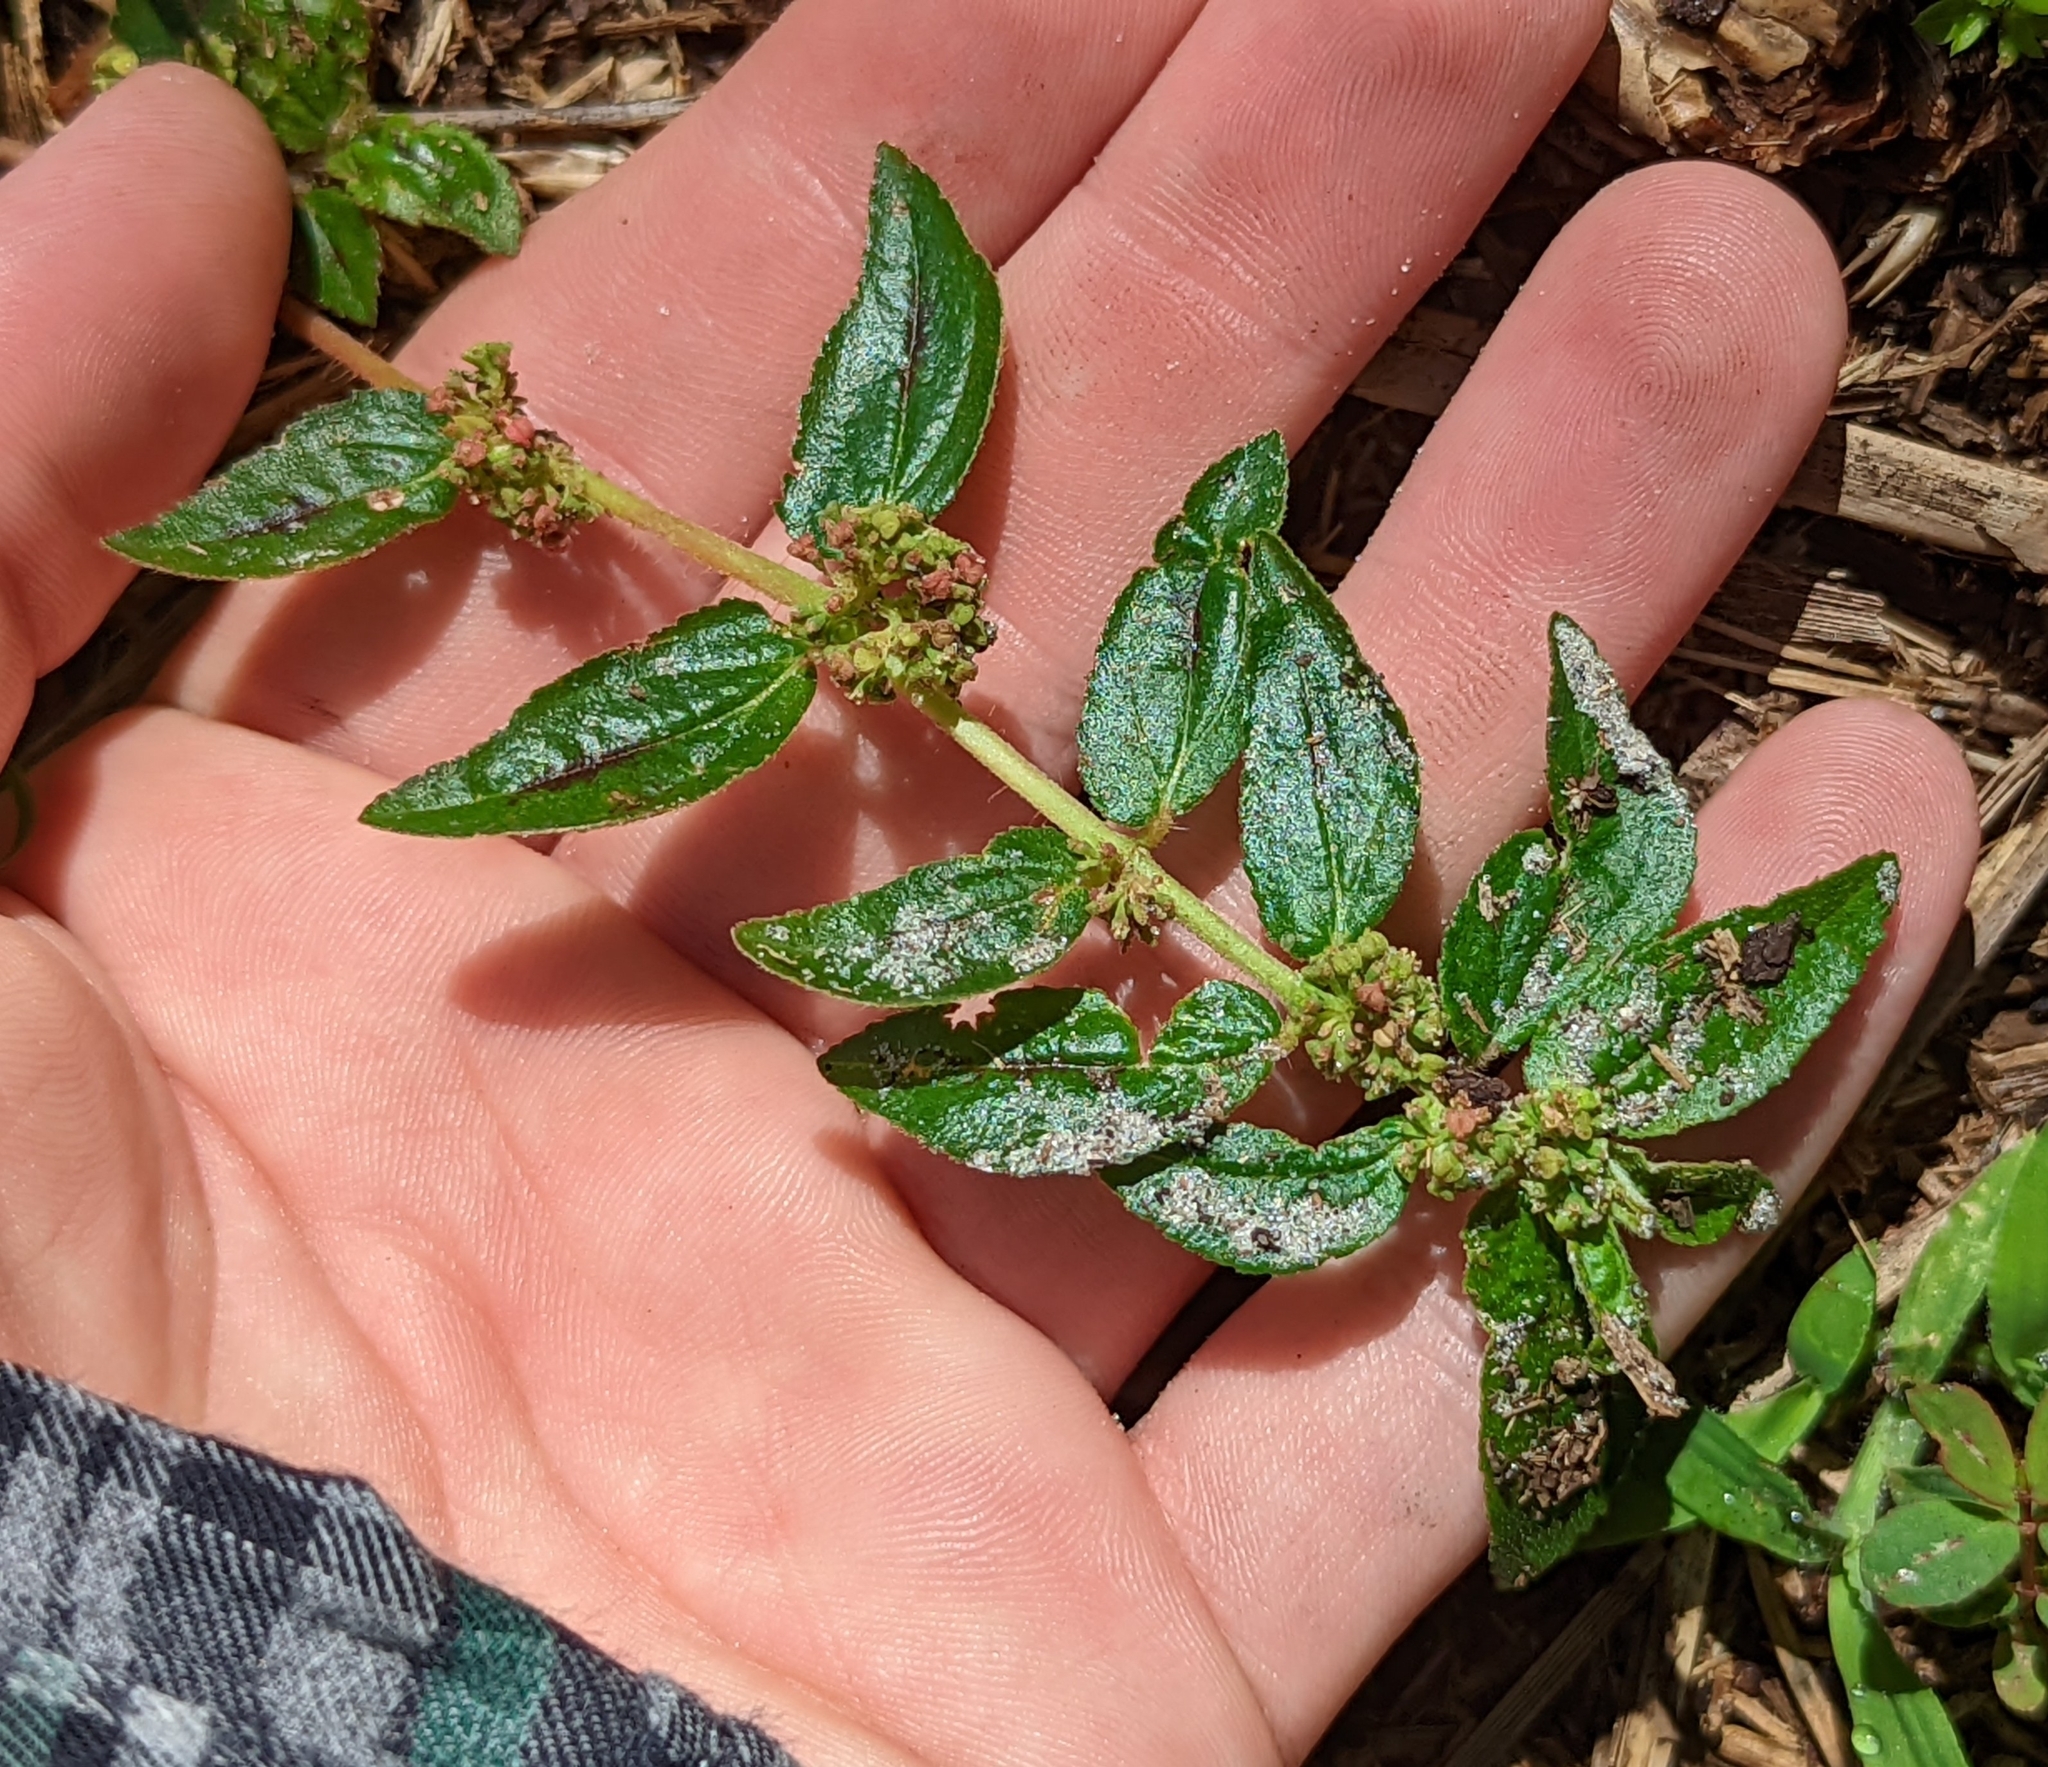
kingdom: Plantae
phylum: Tracheophyta
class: Magnoliopsida
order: Malpighiales
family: Euphorbiaceae
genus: Euphorbia
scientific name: Euphorbia hirta
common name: Pillpod sandmat
